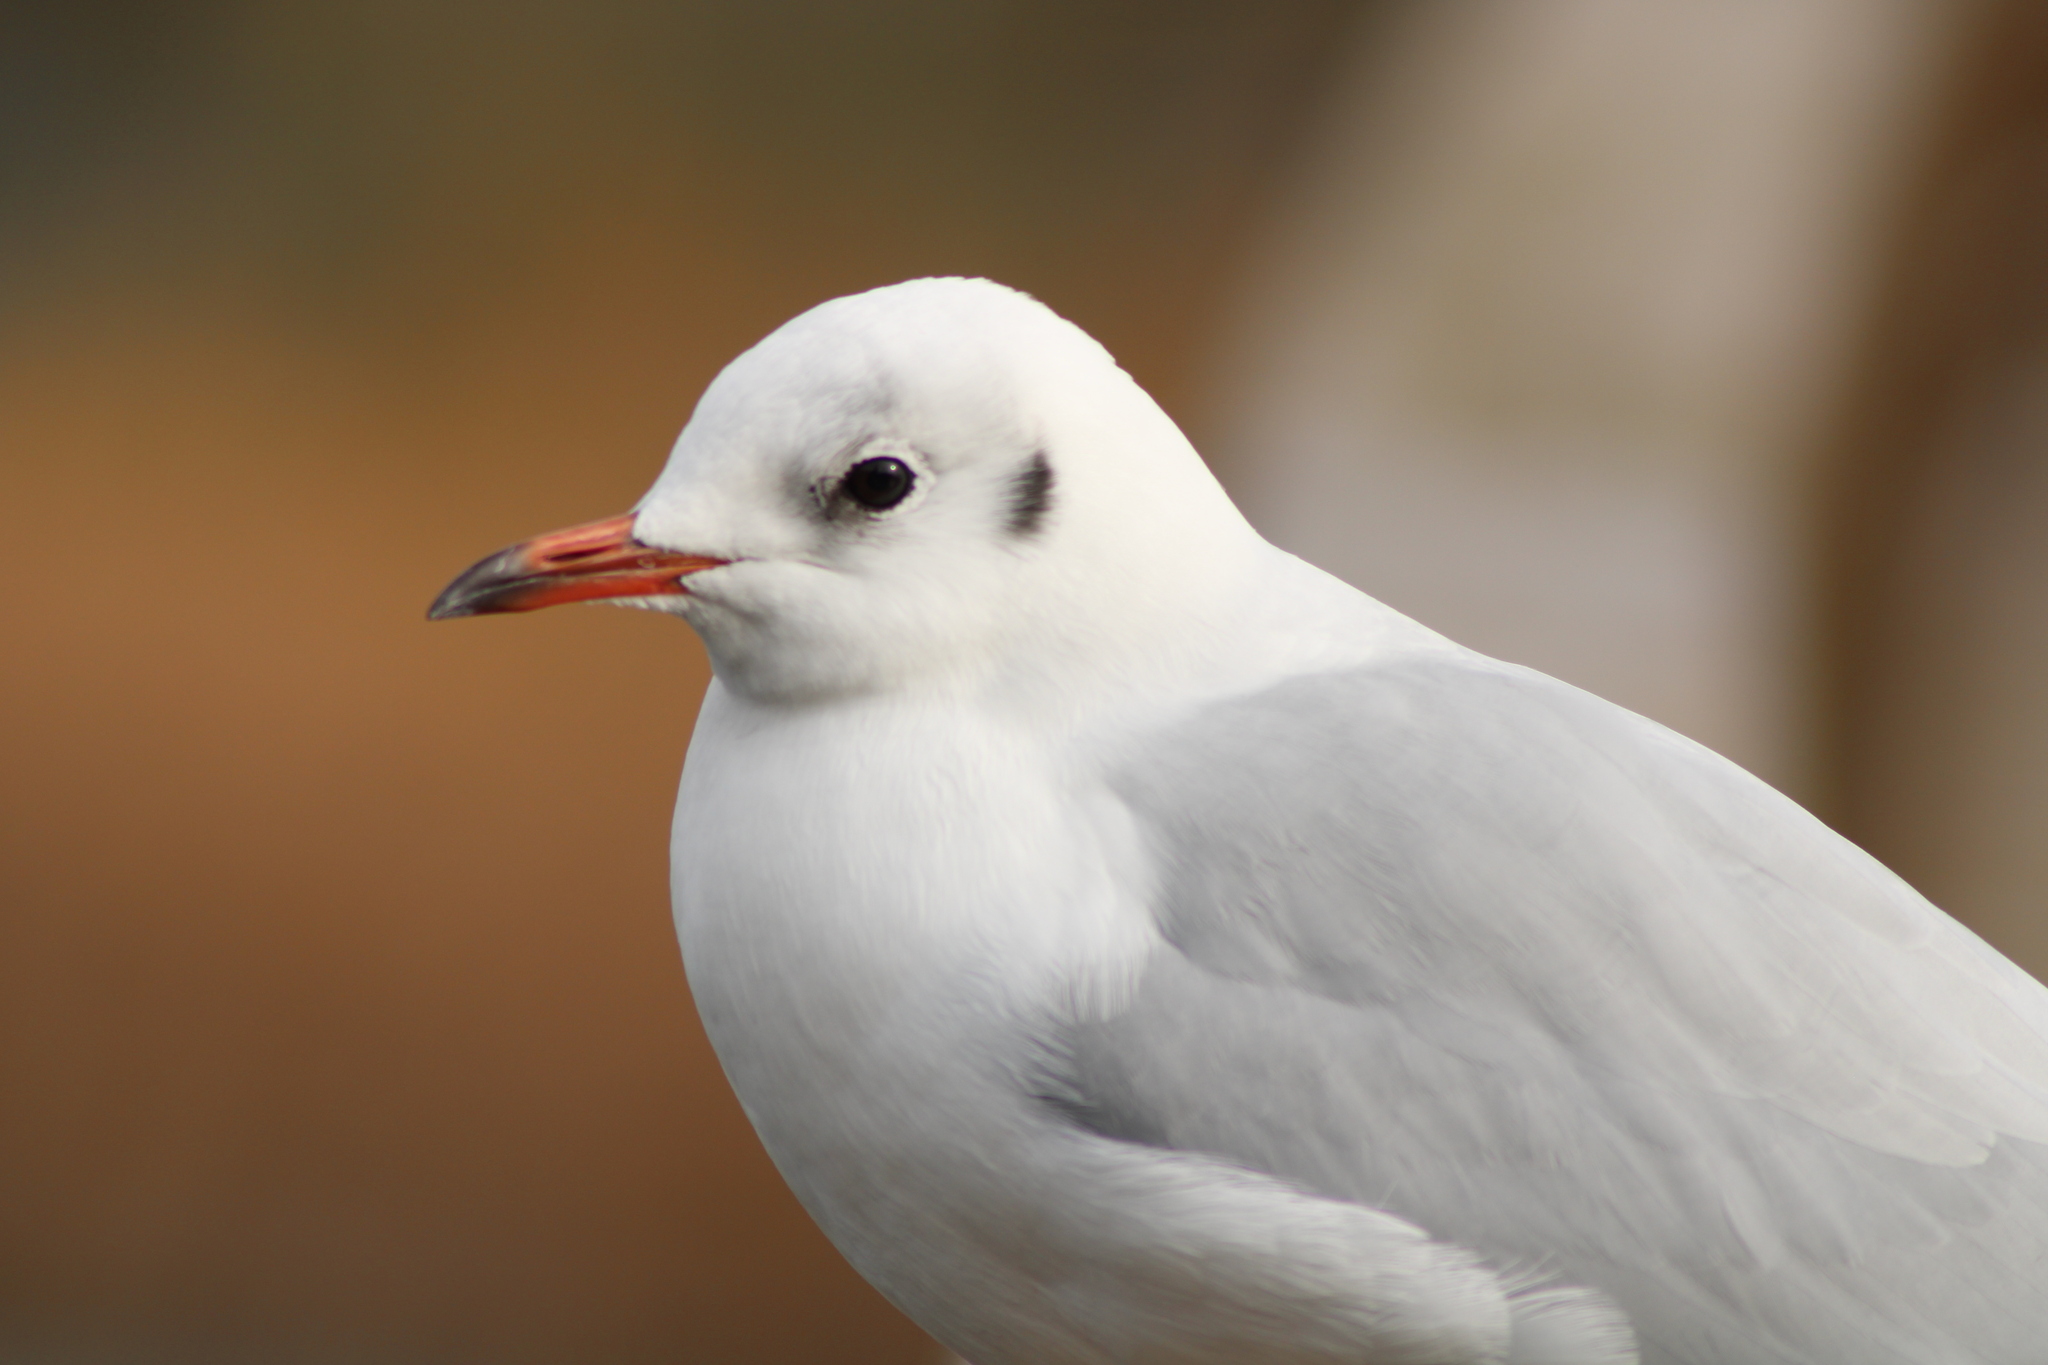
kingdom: Animalia
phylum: Chordata
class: Aves
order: Charadriiformes
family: Laridae
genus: Chroicocephalus
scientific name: Chroicocephalus ridibundus
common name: Black-headed gull
